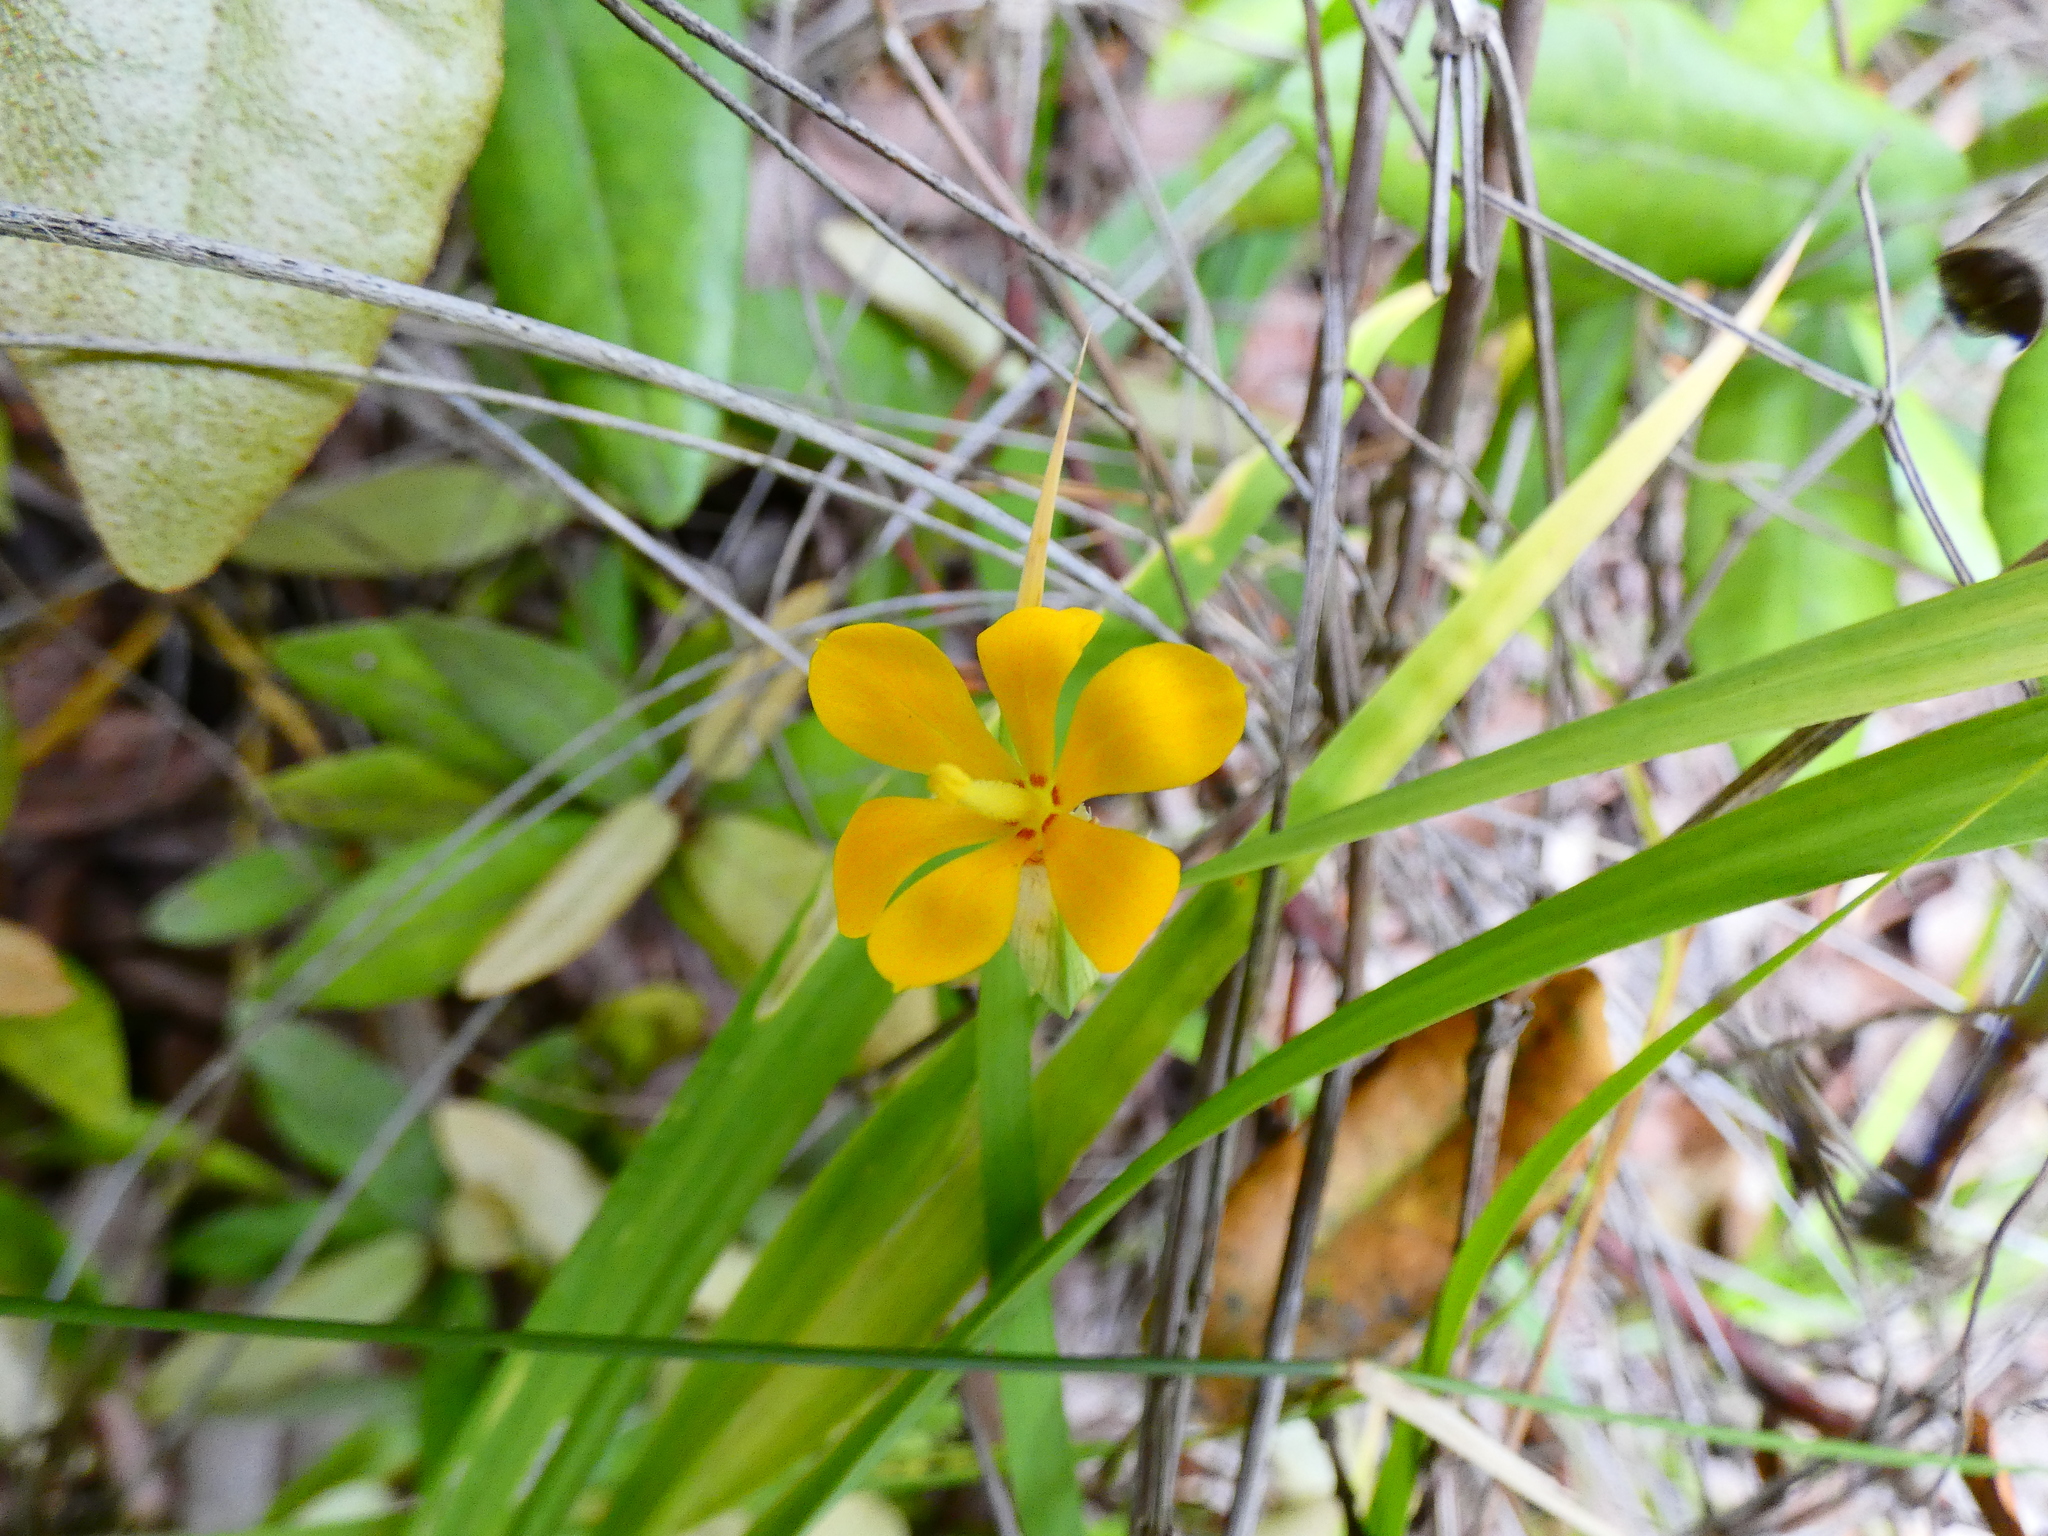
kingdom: Plantae
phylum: Tracheophyta
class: Liliopsida
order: Asparagales
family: Iridaceae
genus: Solenomelus
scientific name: Solenomelus pedunculatus
